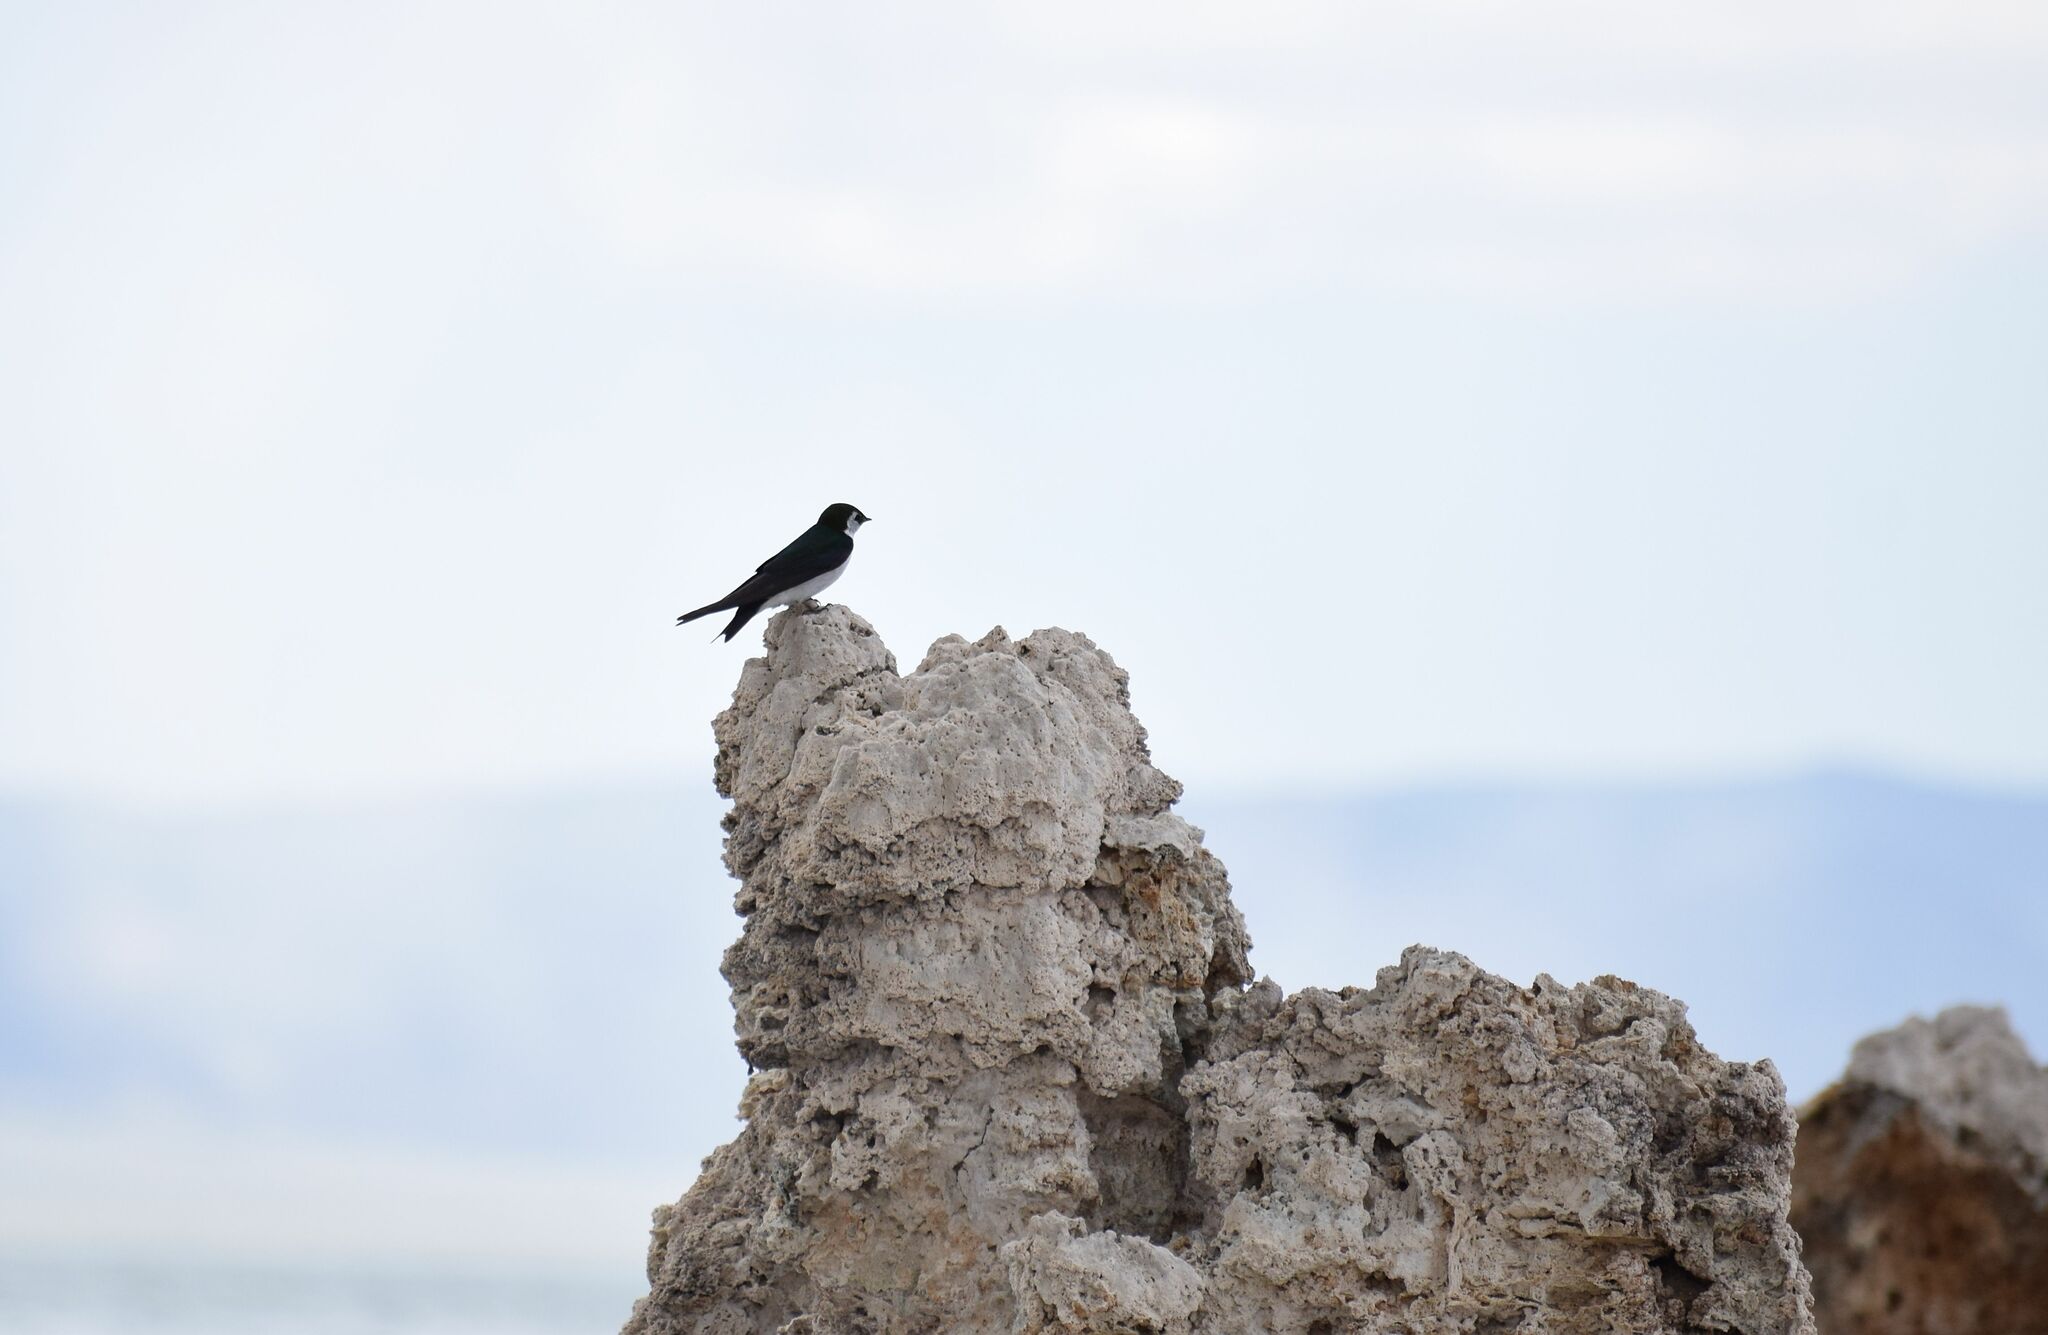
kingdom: Animalia
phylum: Chordata
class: Aves
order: Passeriformes
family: Hirundinidae
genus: Tachycineta
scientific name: Tachycineta thalassina
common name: Violet-green swallow
